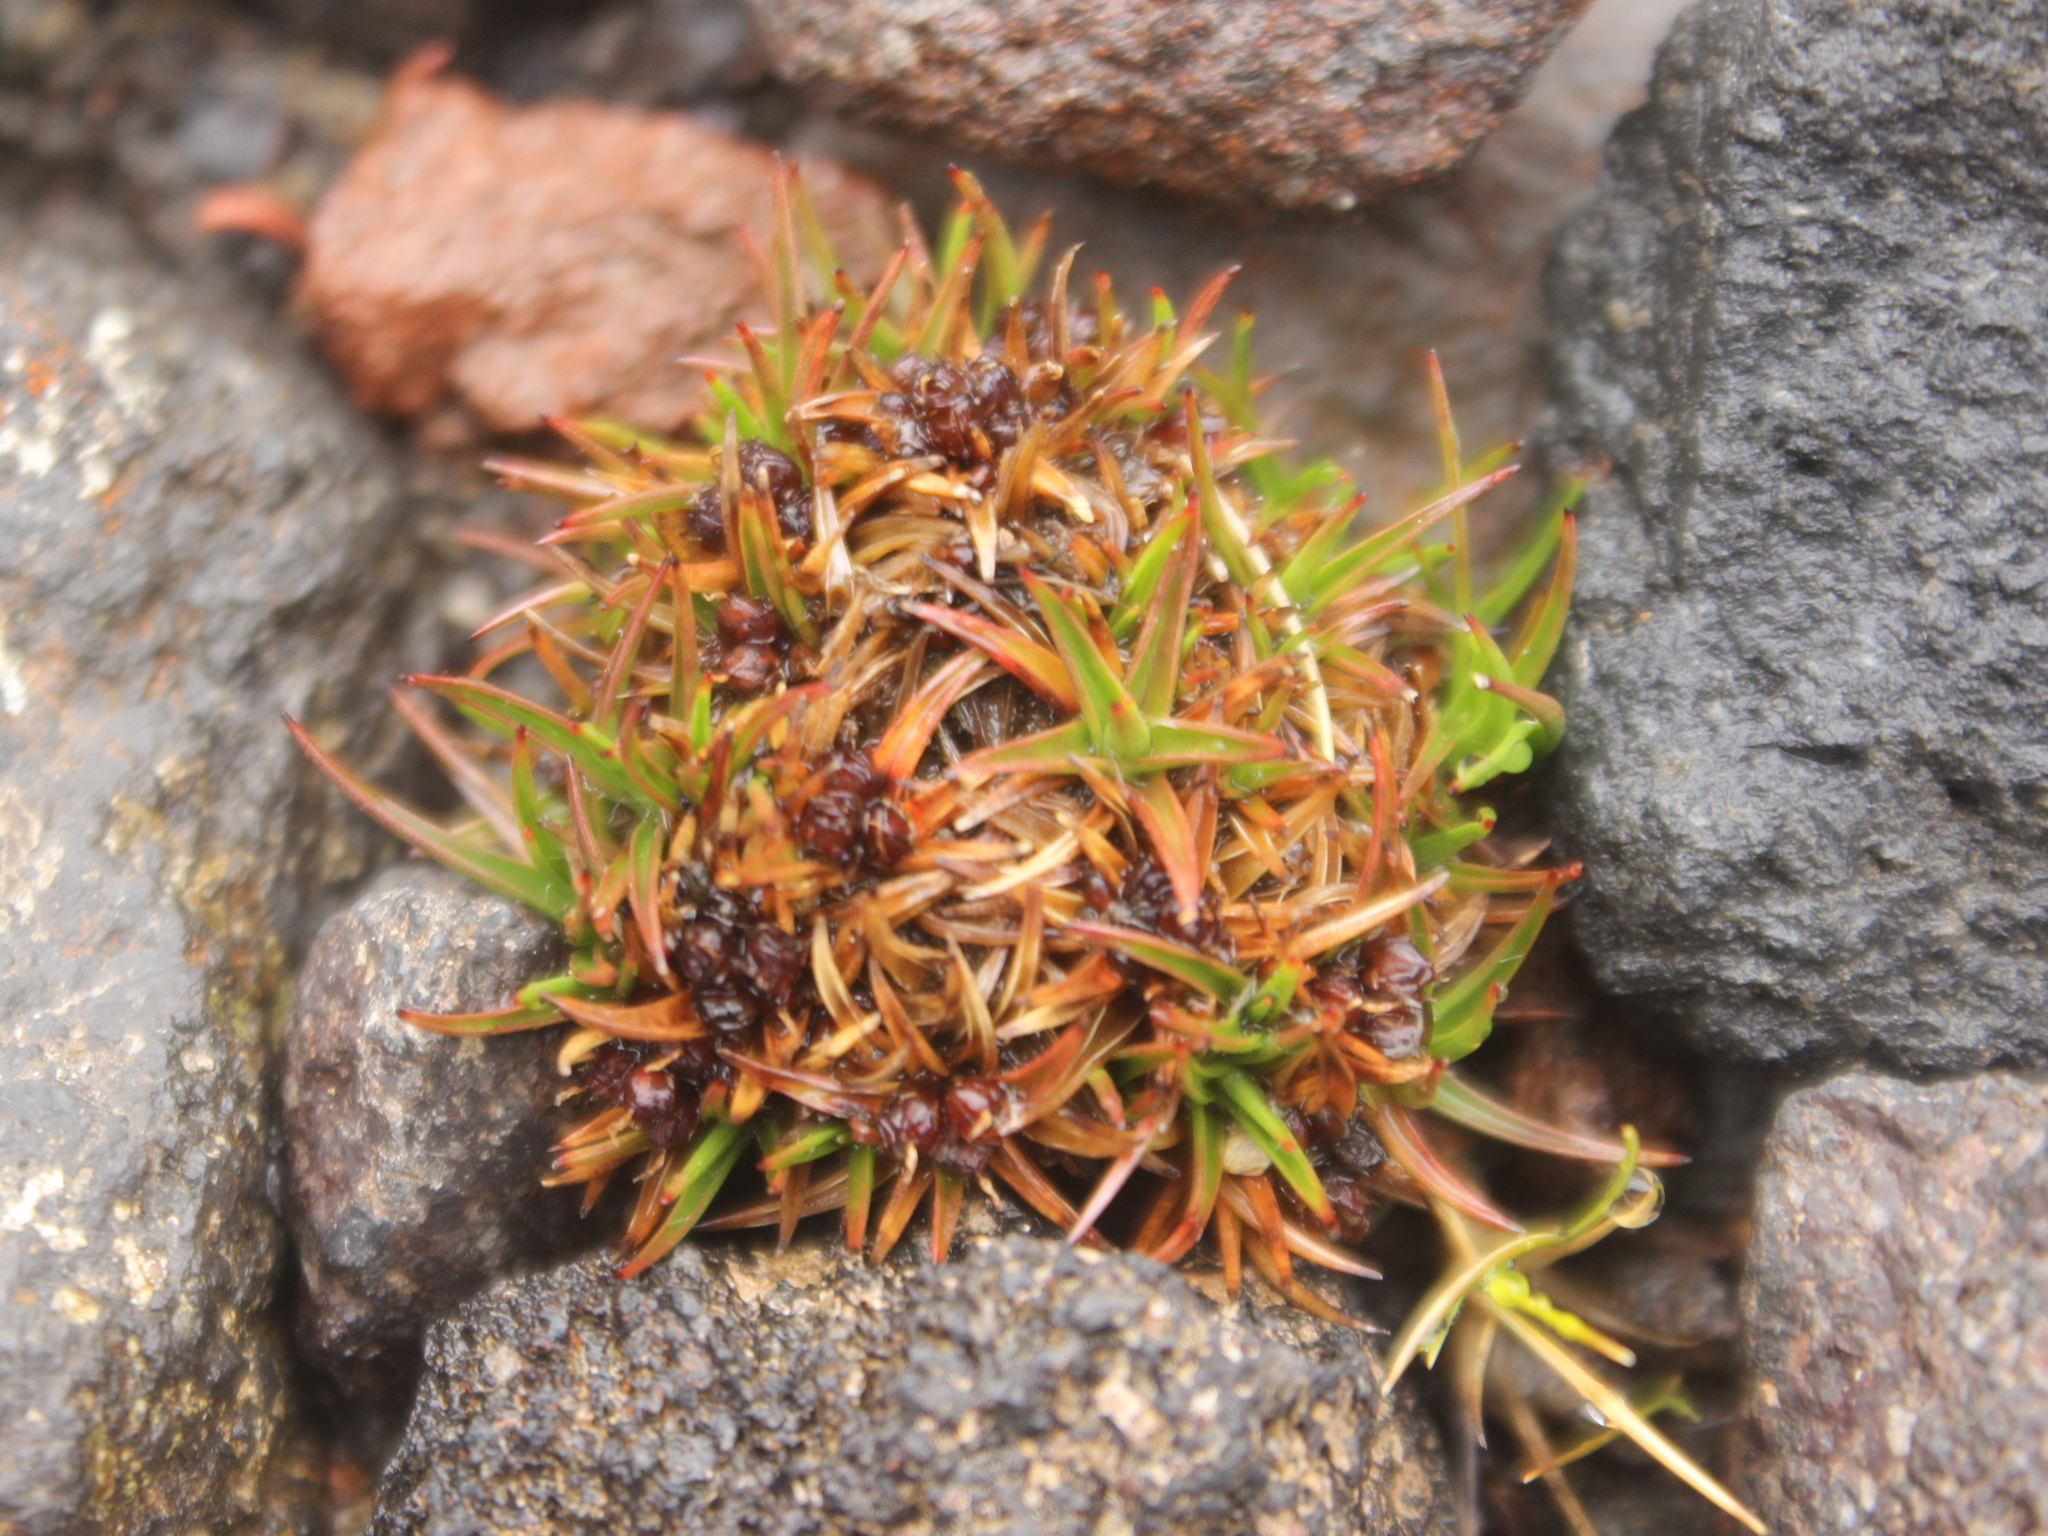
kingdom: Plantae
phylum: Tracheophyta
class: Liliopsida
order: Poales
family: Juncaceae
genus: Luzula
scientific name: Luzula colensoi
